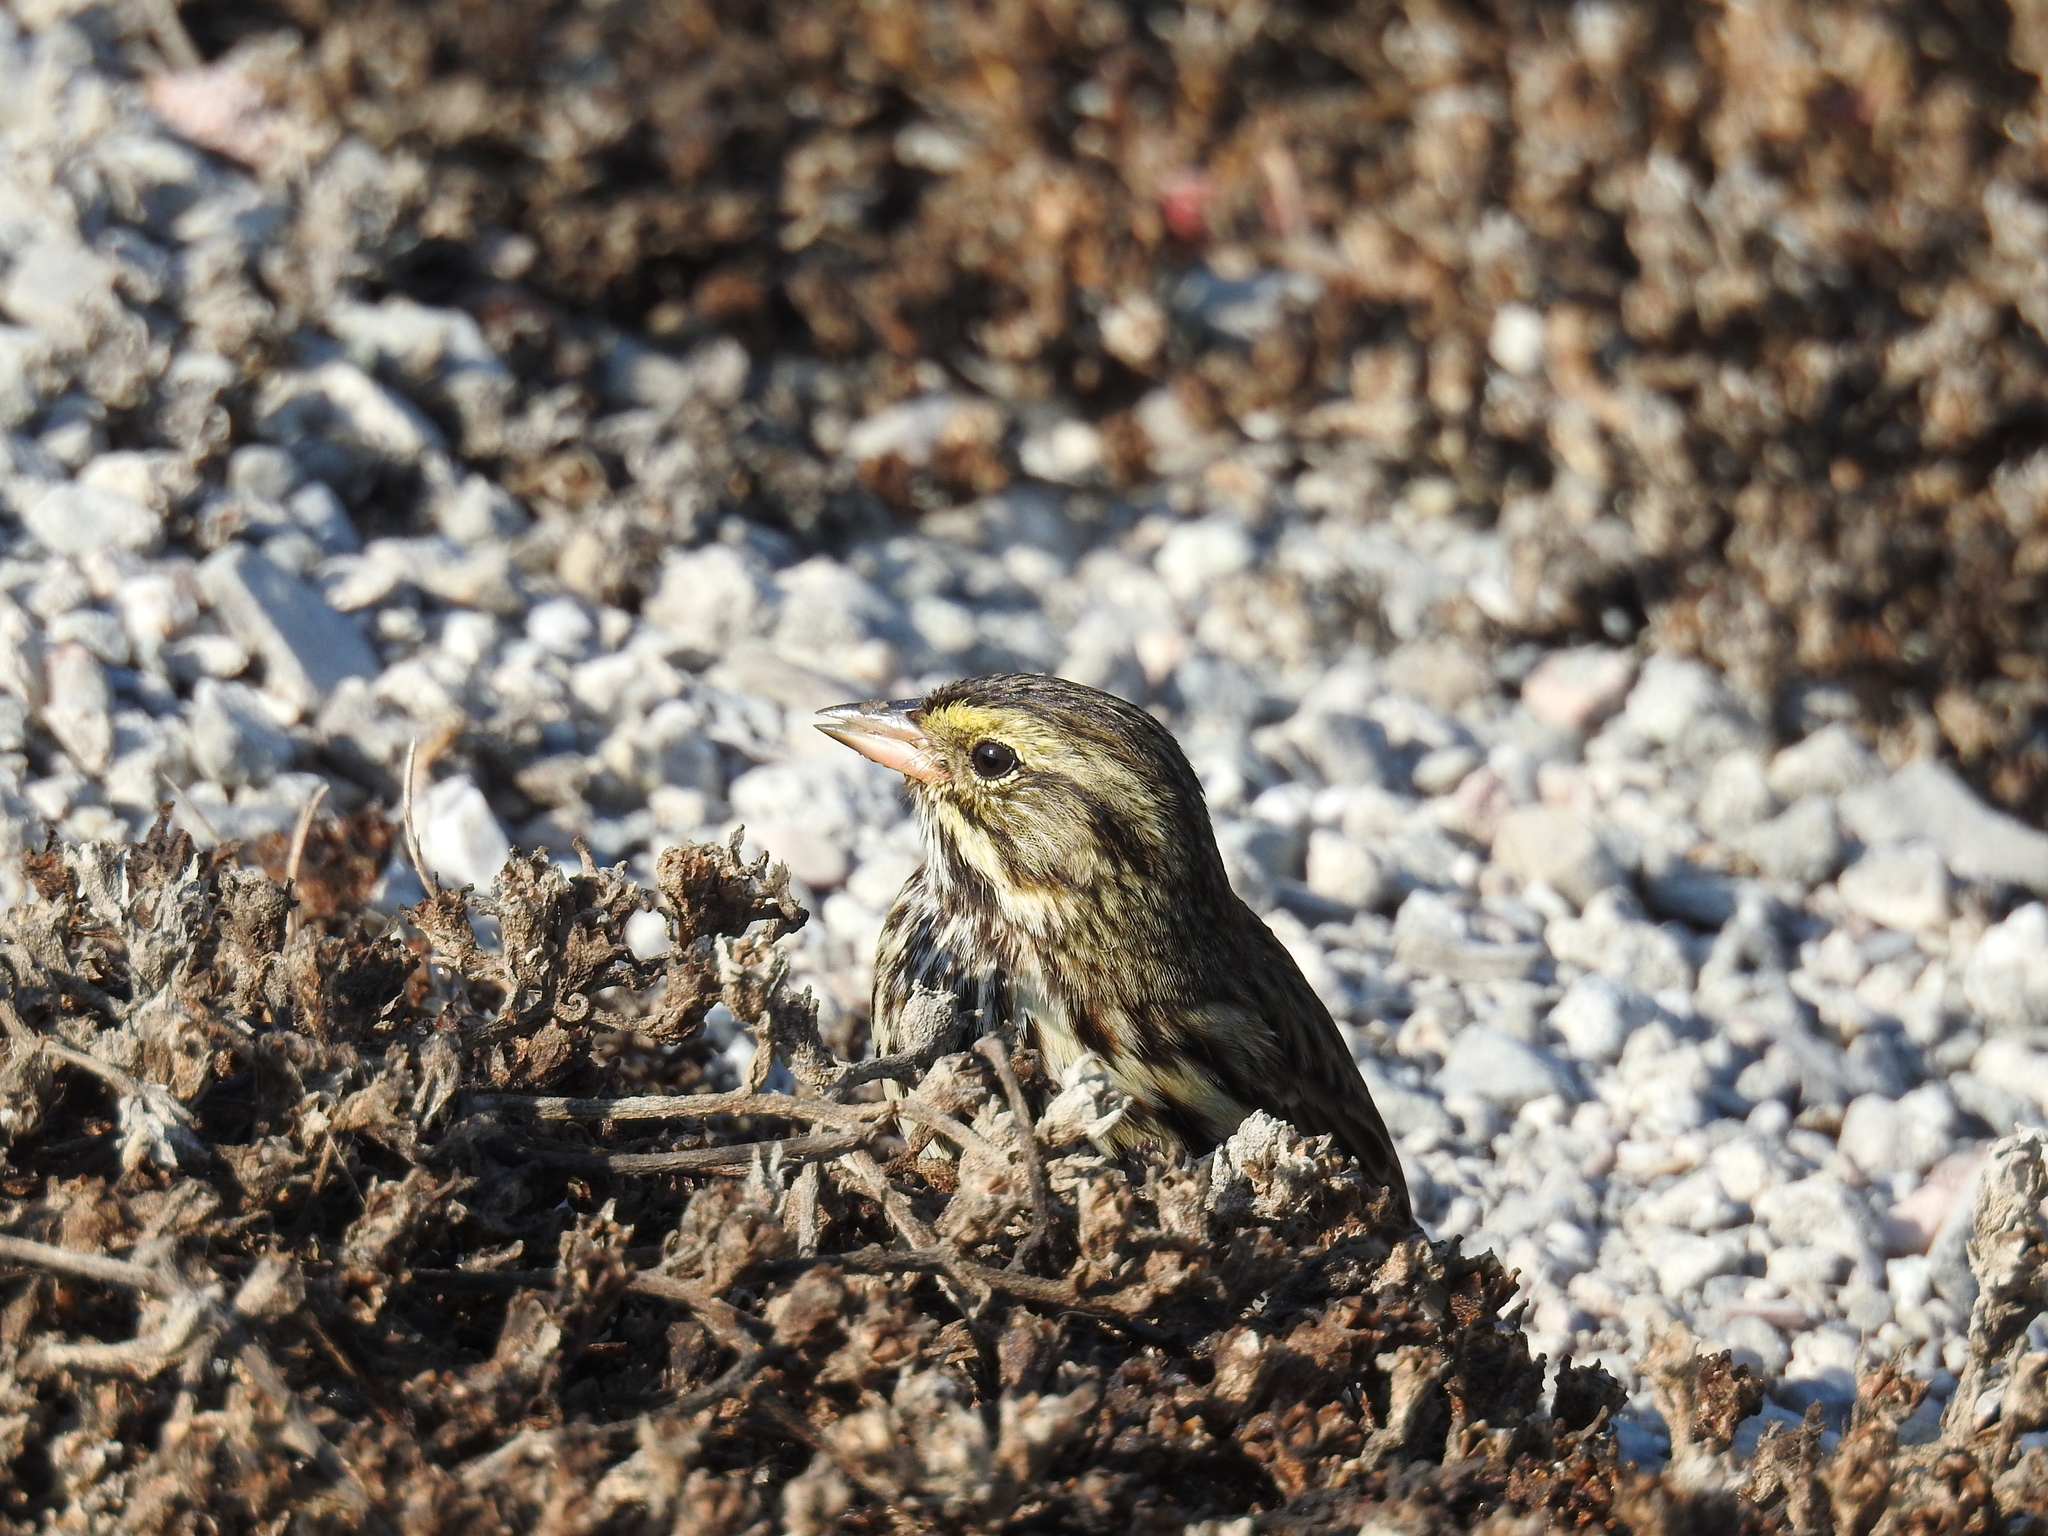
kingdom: Animalia
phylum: Chordata
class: Aves
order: Passeriformes
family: Passerellidae
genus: Passerculus
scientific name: Passerculus sandwichensis
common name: Savannah sparrow
